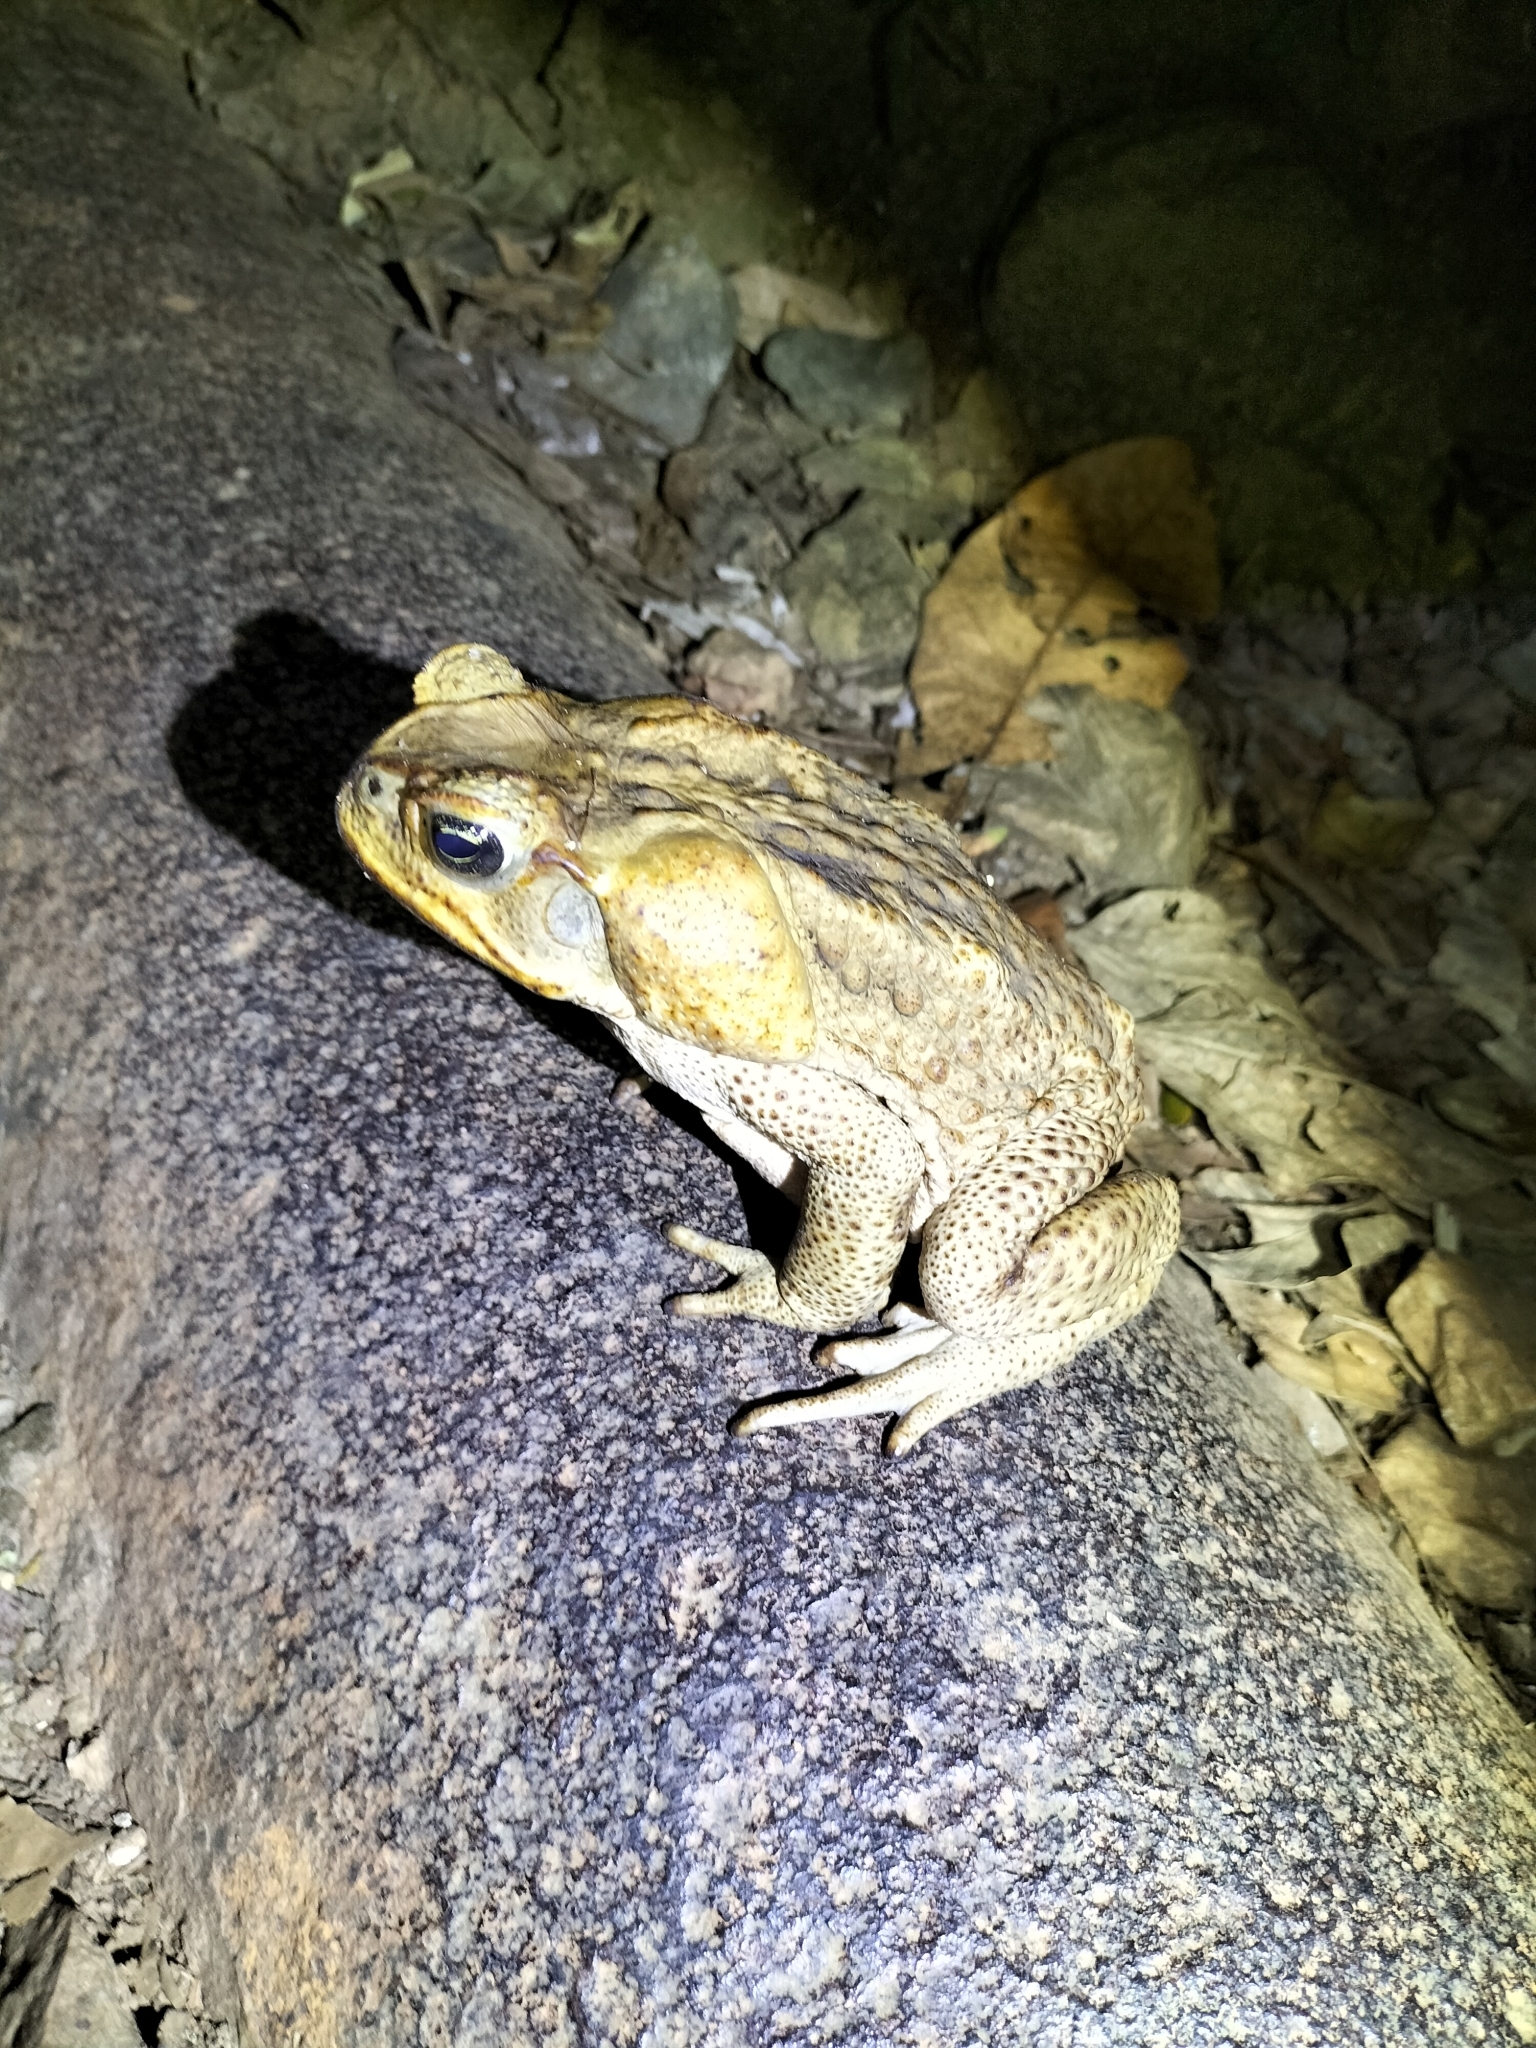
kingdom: Animalia
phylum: Chordata
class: Amphibia
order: Anura
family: Bufonidae
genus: Rhinella
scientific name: Rhinella marina
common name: Cane toad
